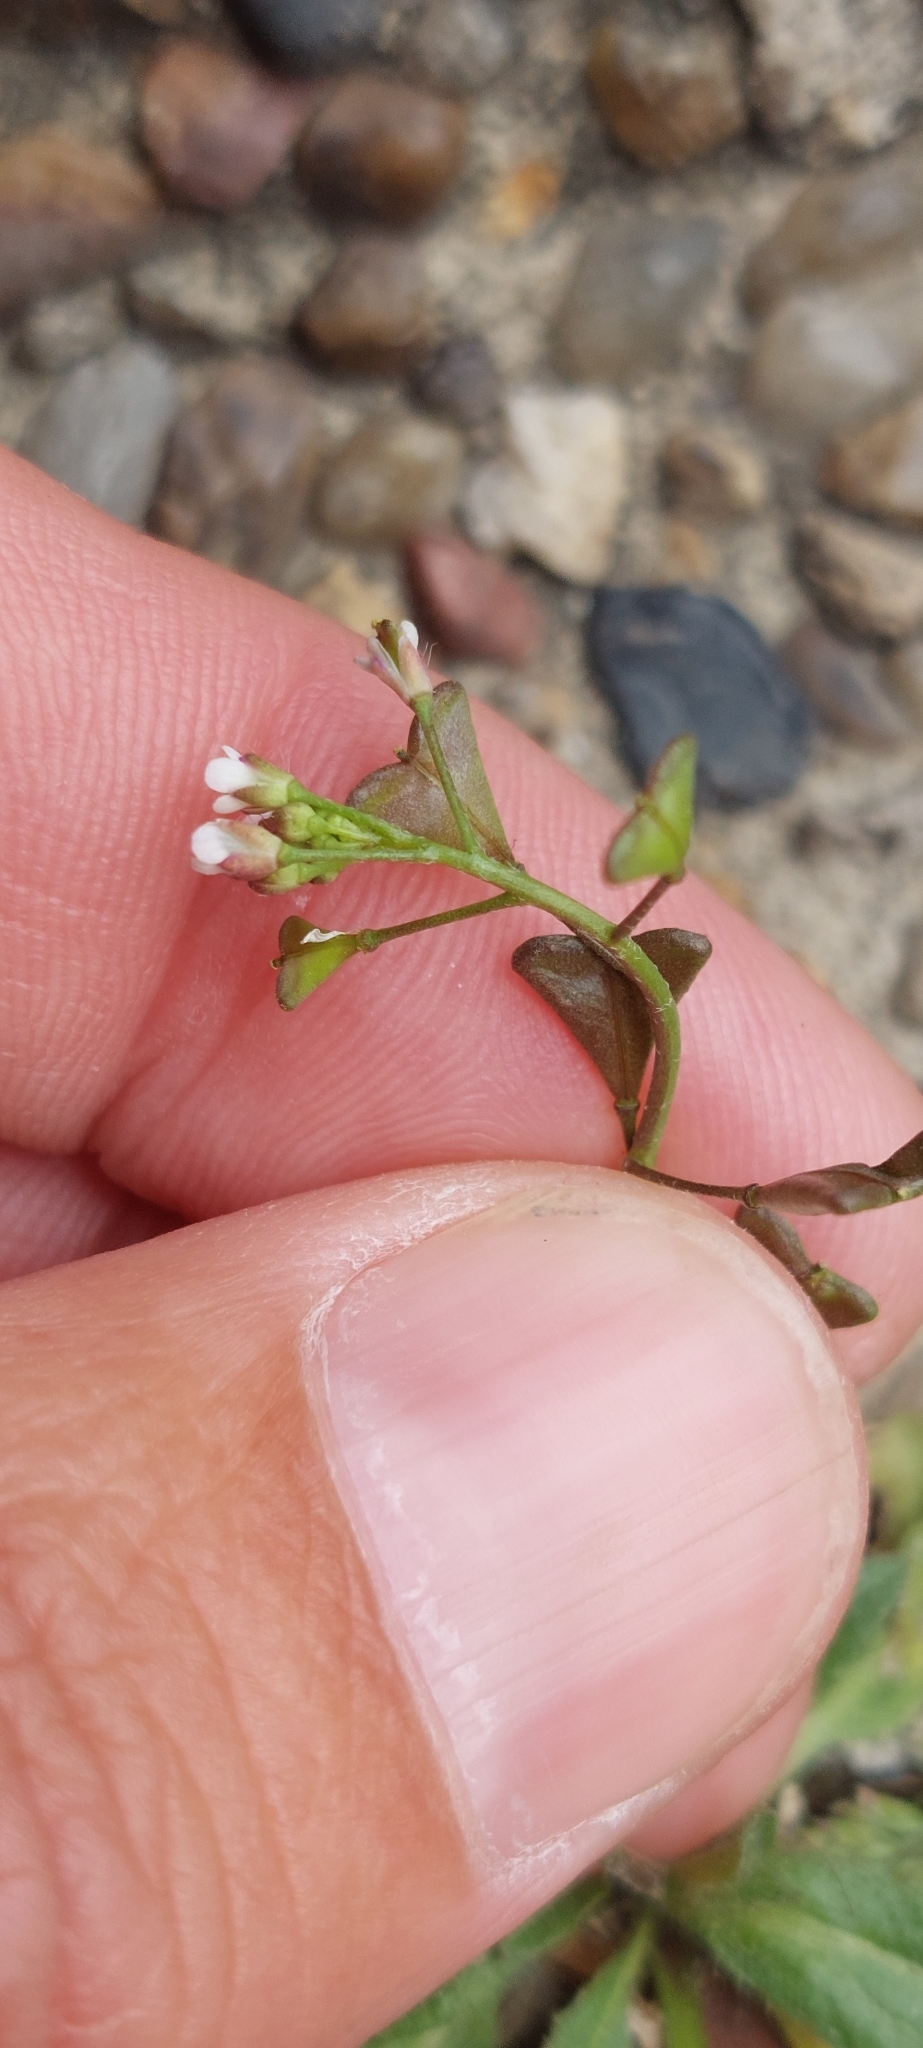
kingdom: Plantae
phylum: Tracheophyta
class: Magnoliopsida
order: Brassicales
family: Brassicaceae
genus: Capsella
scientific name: Capsella bursa-pastoris
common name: Shepherd's purse
